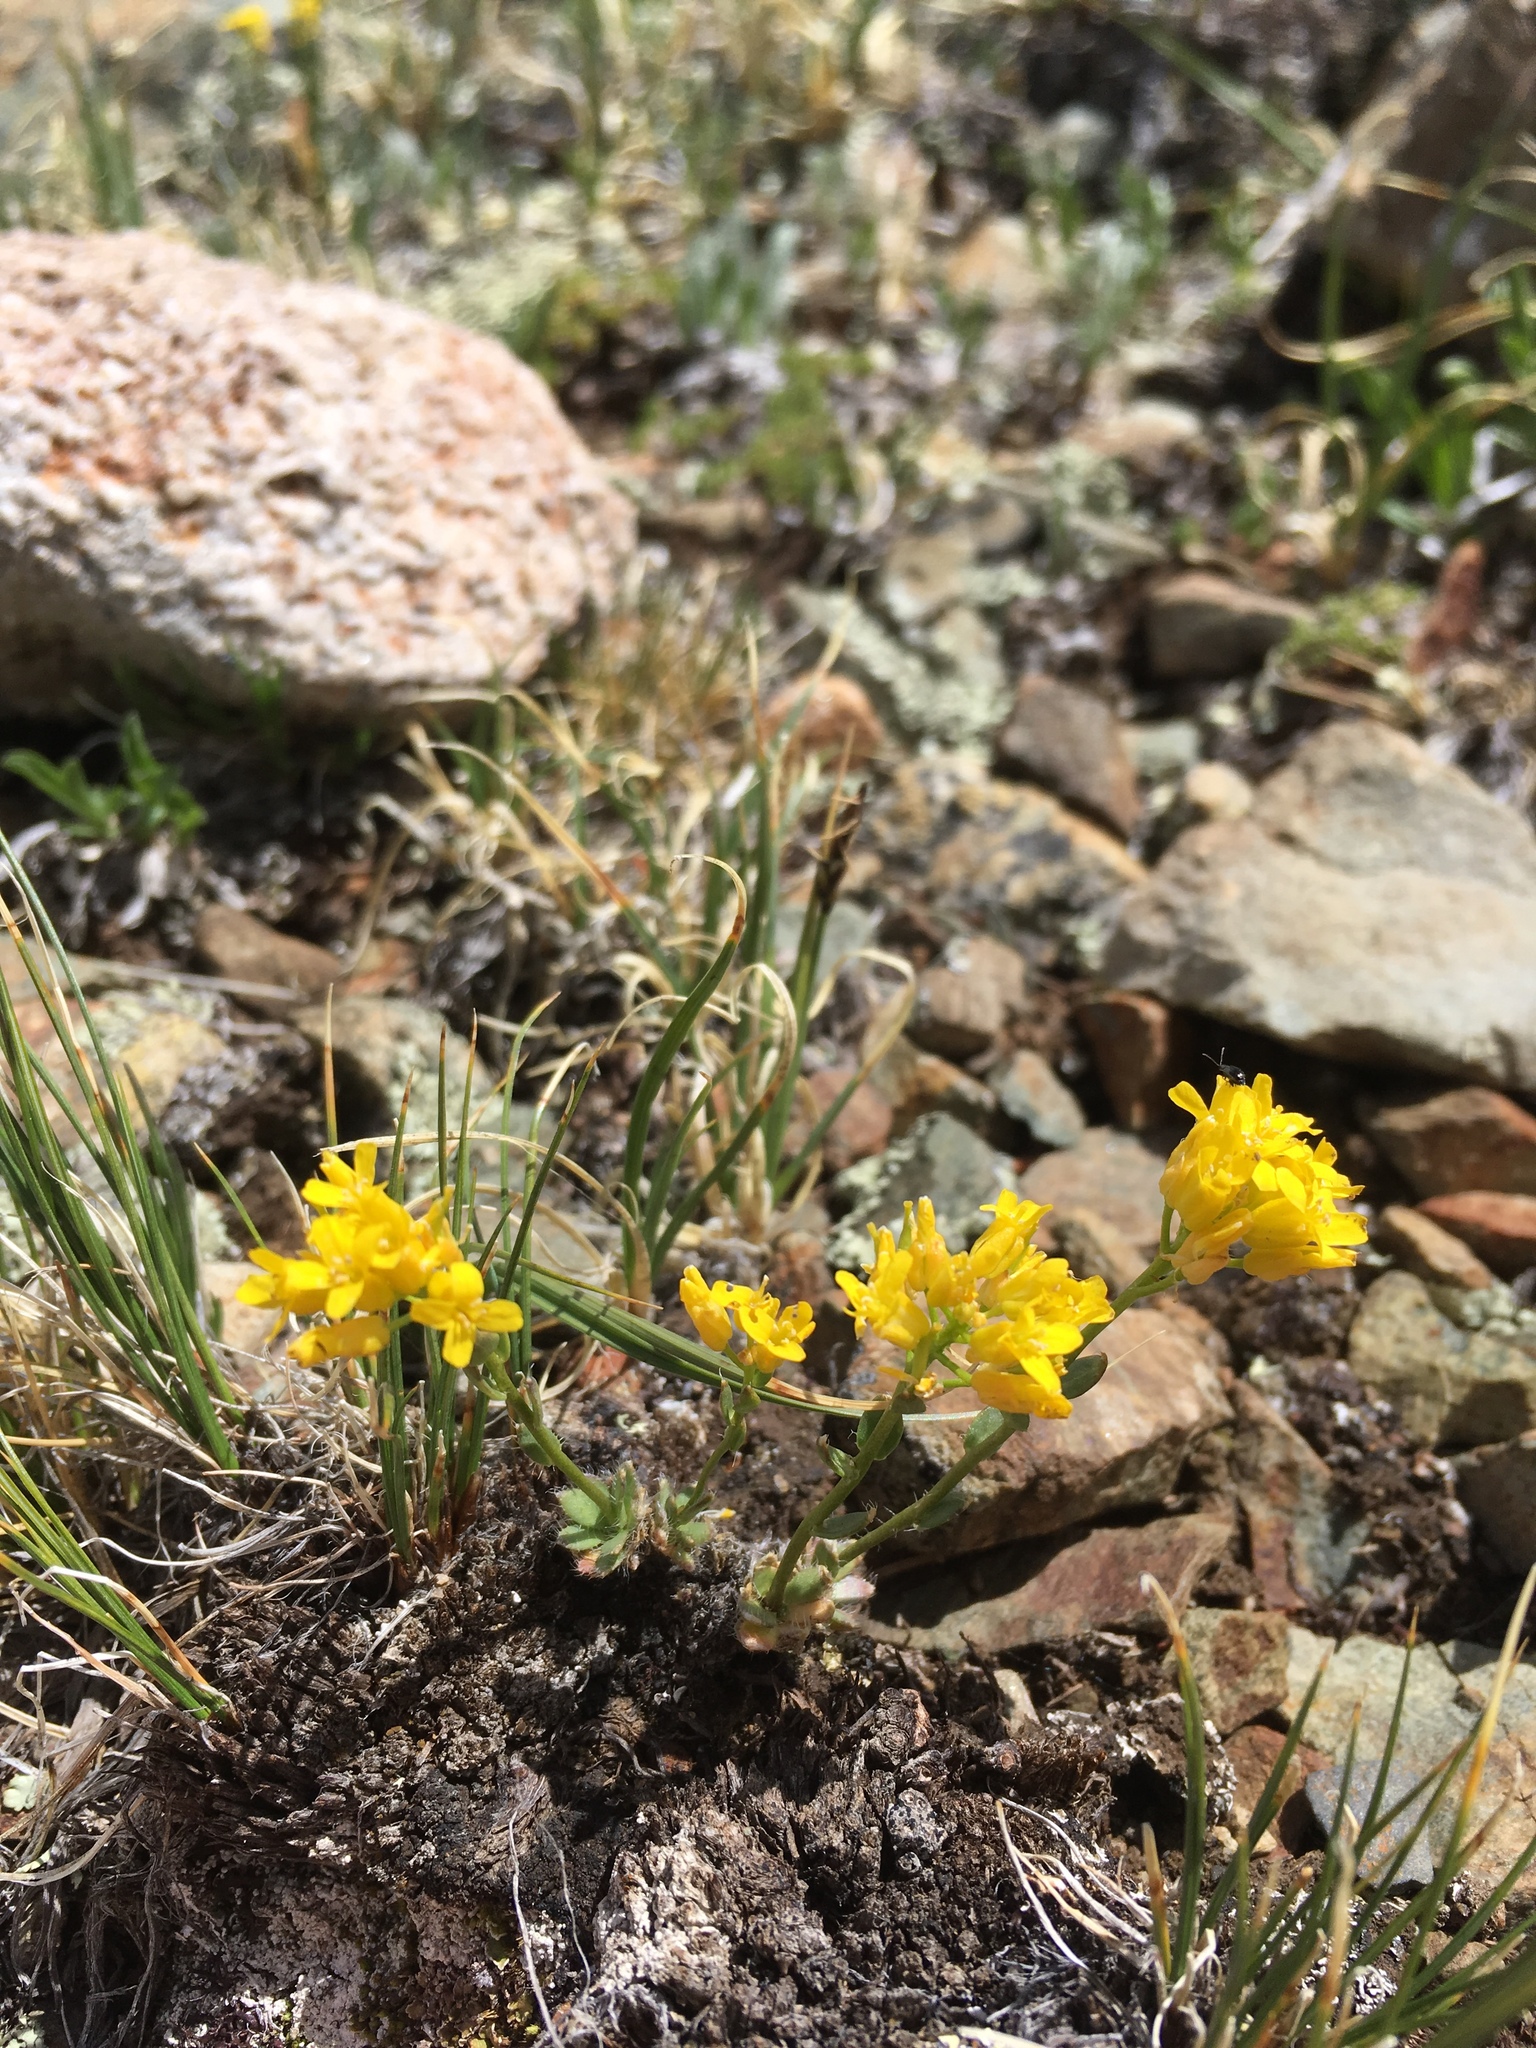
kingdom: Plantae
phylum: Tracheophyta
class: Magnoliopsida
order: Brassicales
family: Brassicaceae
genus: Draba
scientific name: Draba heilii
